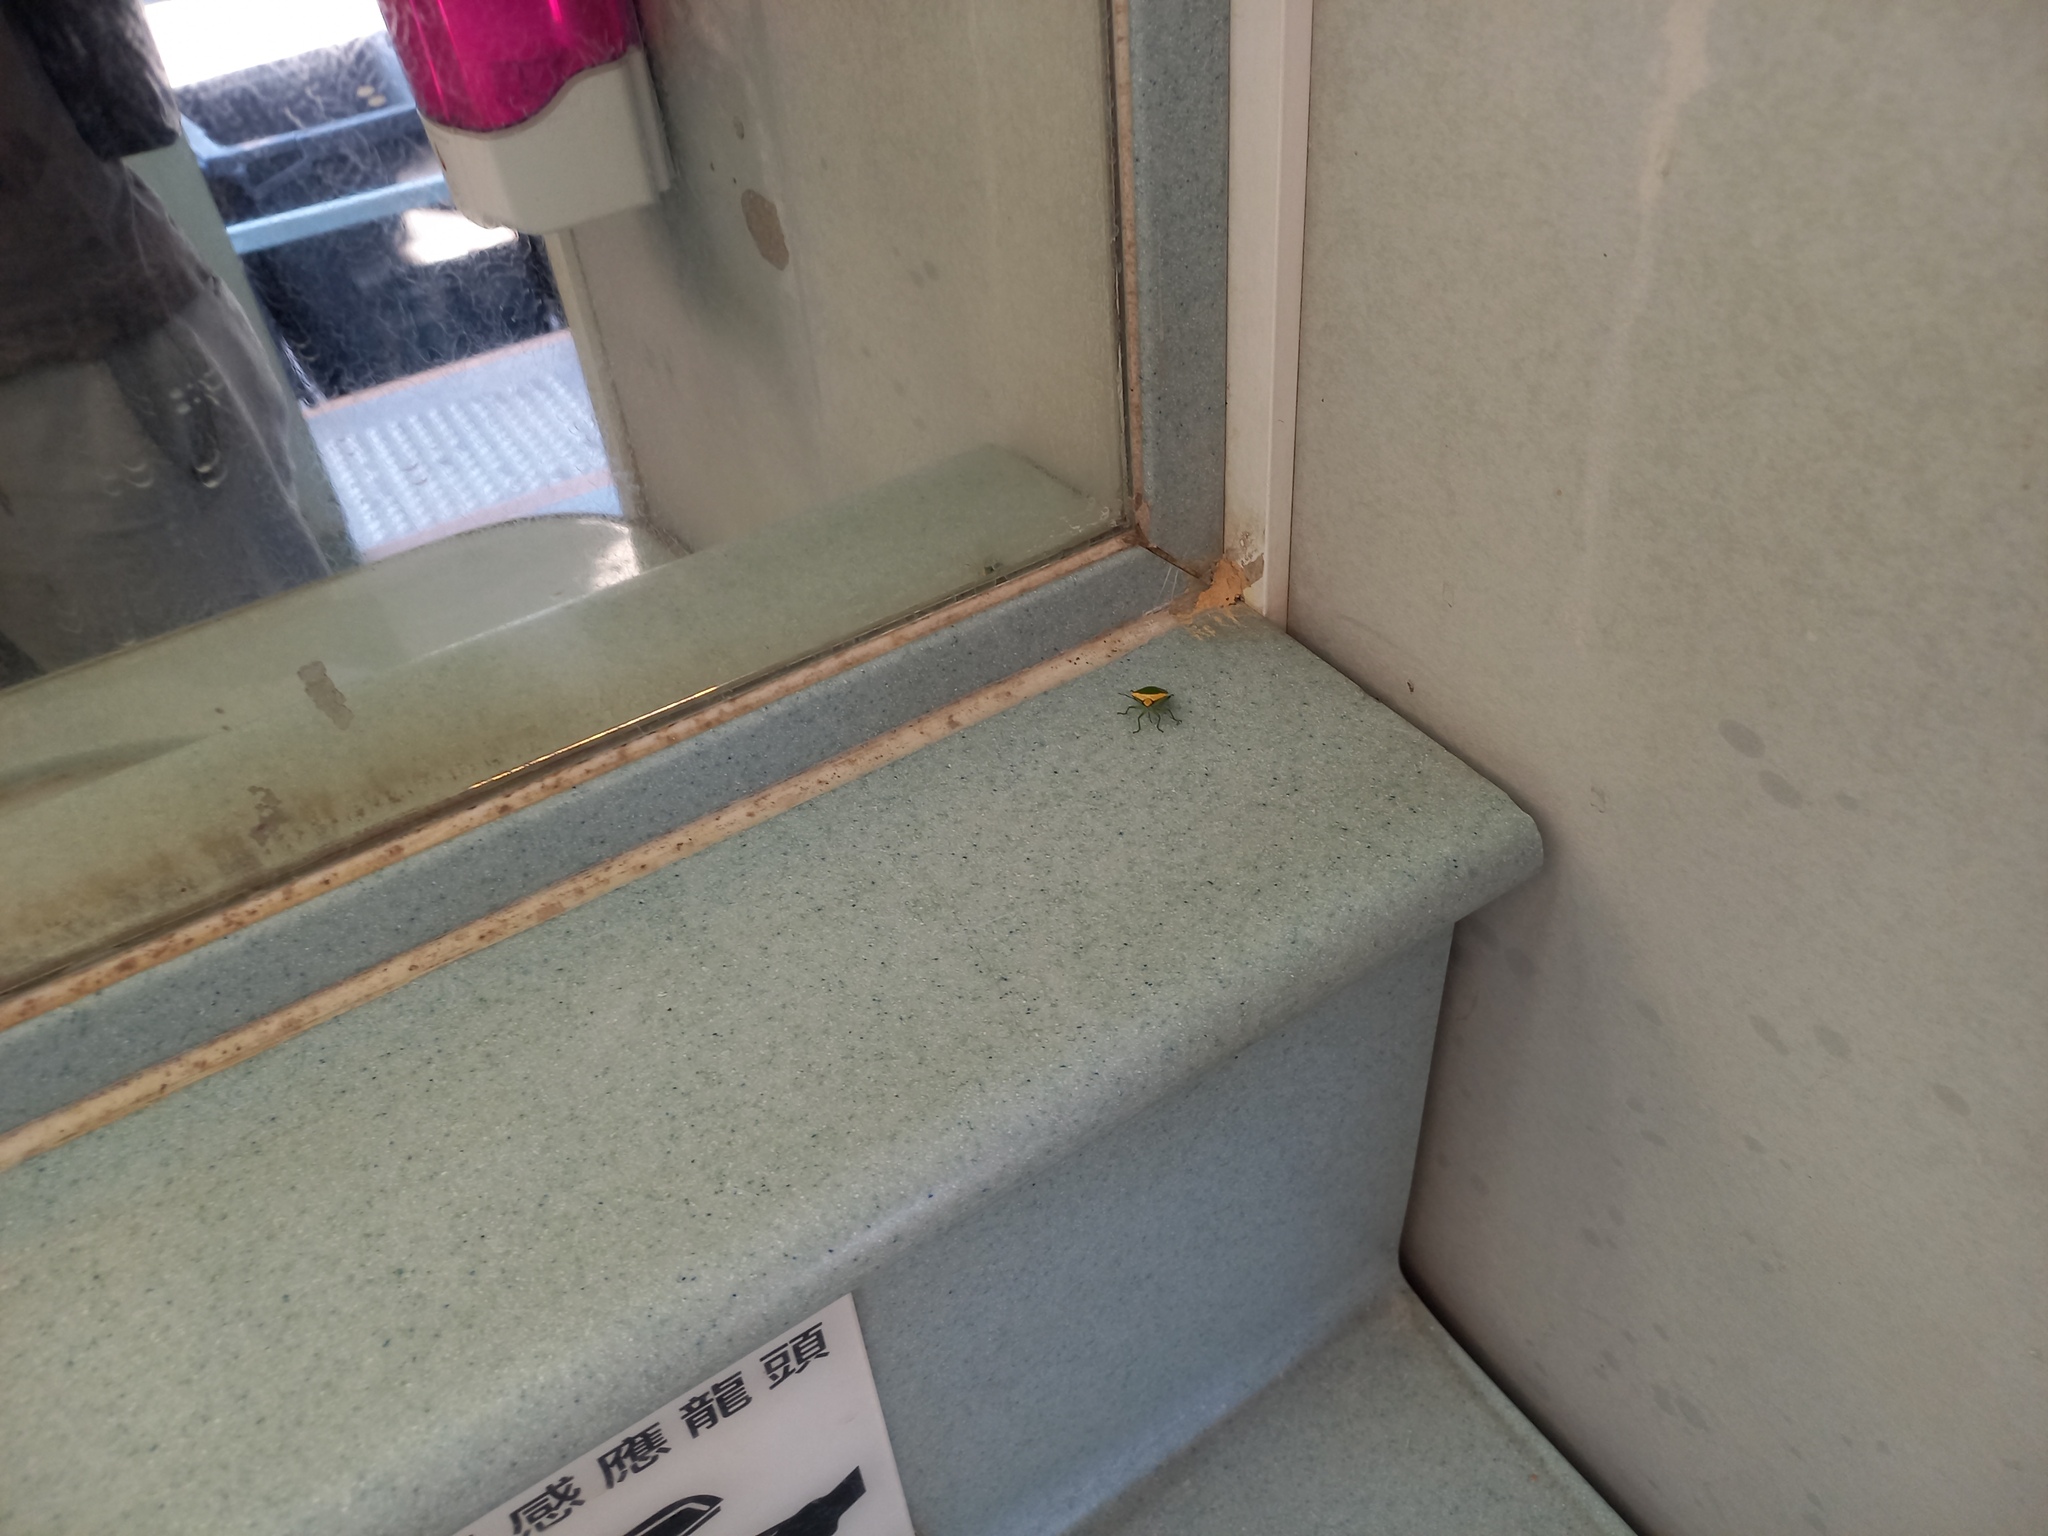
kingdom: Animalia
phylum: Arthropoda
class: Insecta
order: Hemiptera
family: Pentatomidae
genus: Glaucias
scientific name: Glaucias crassus
